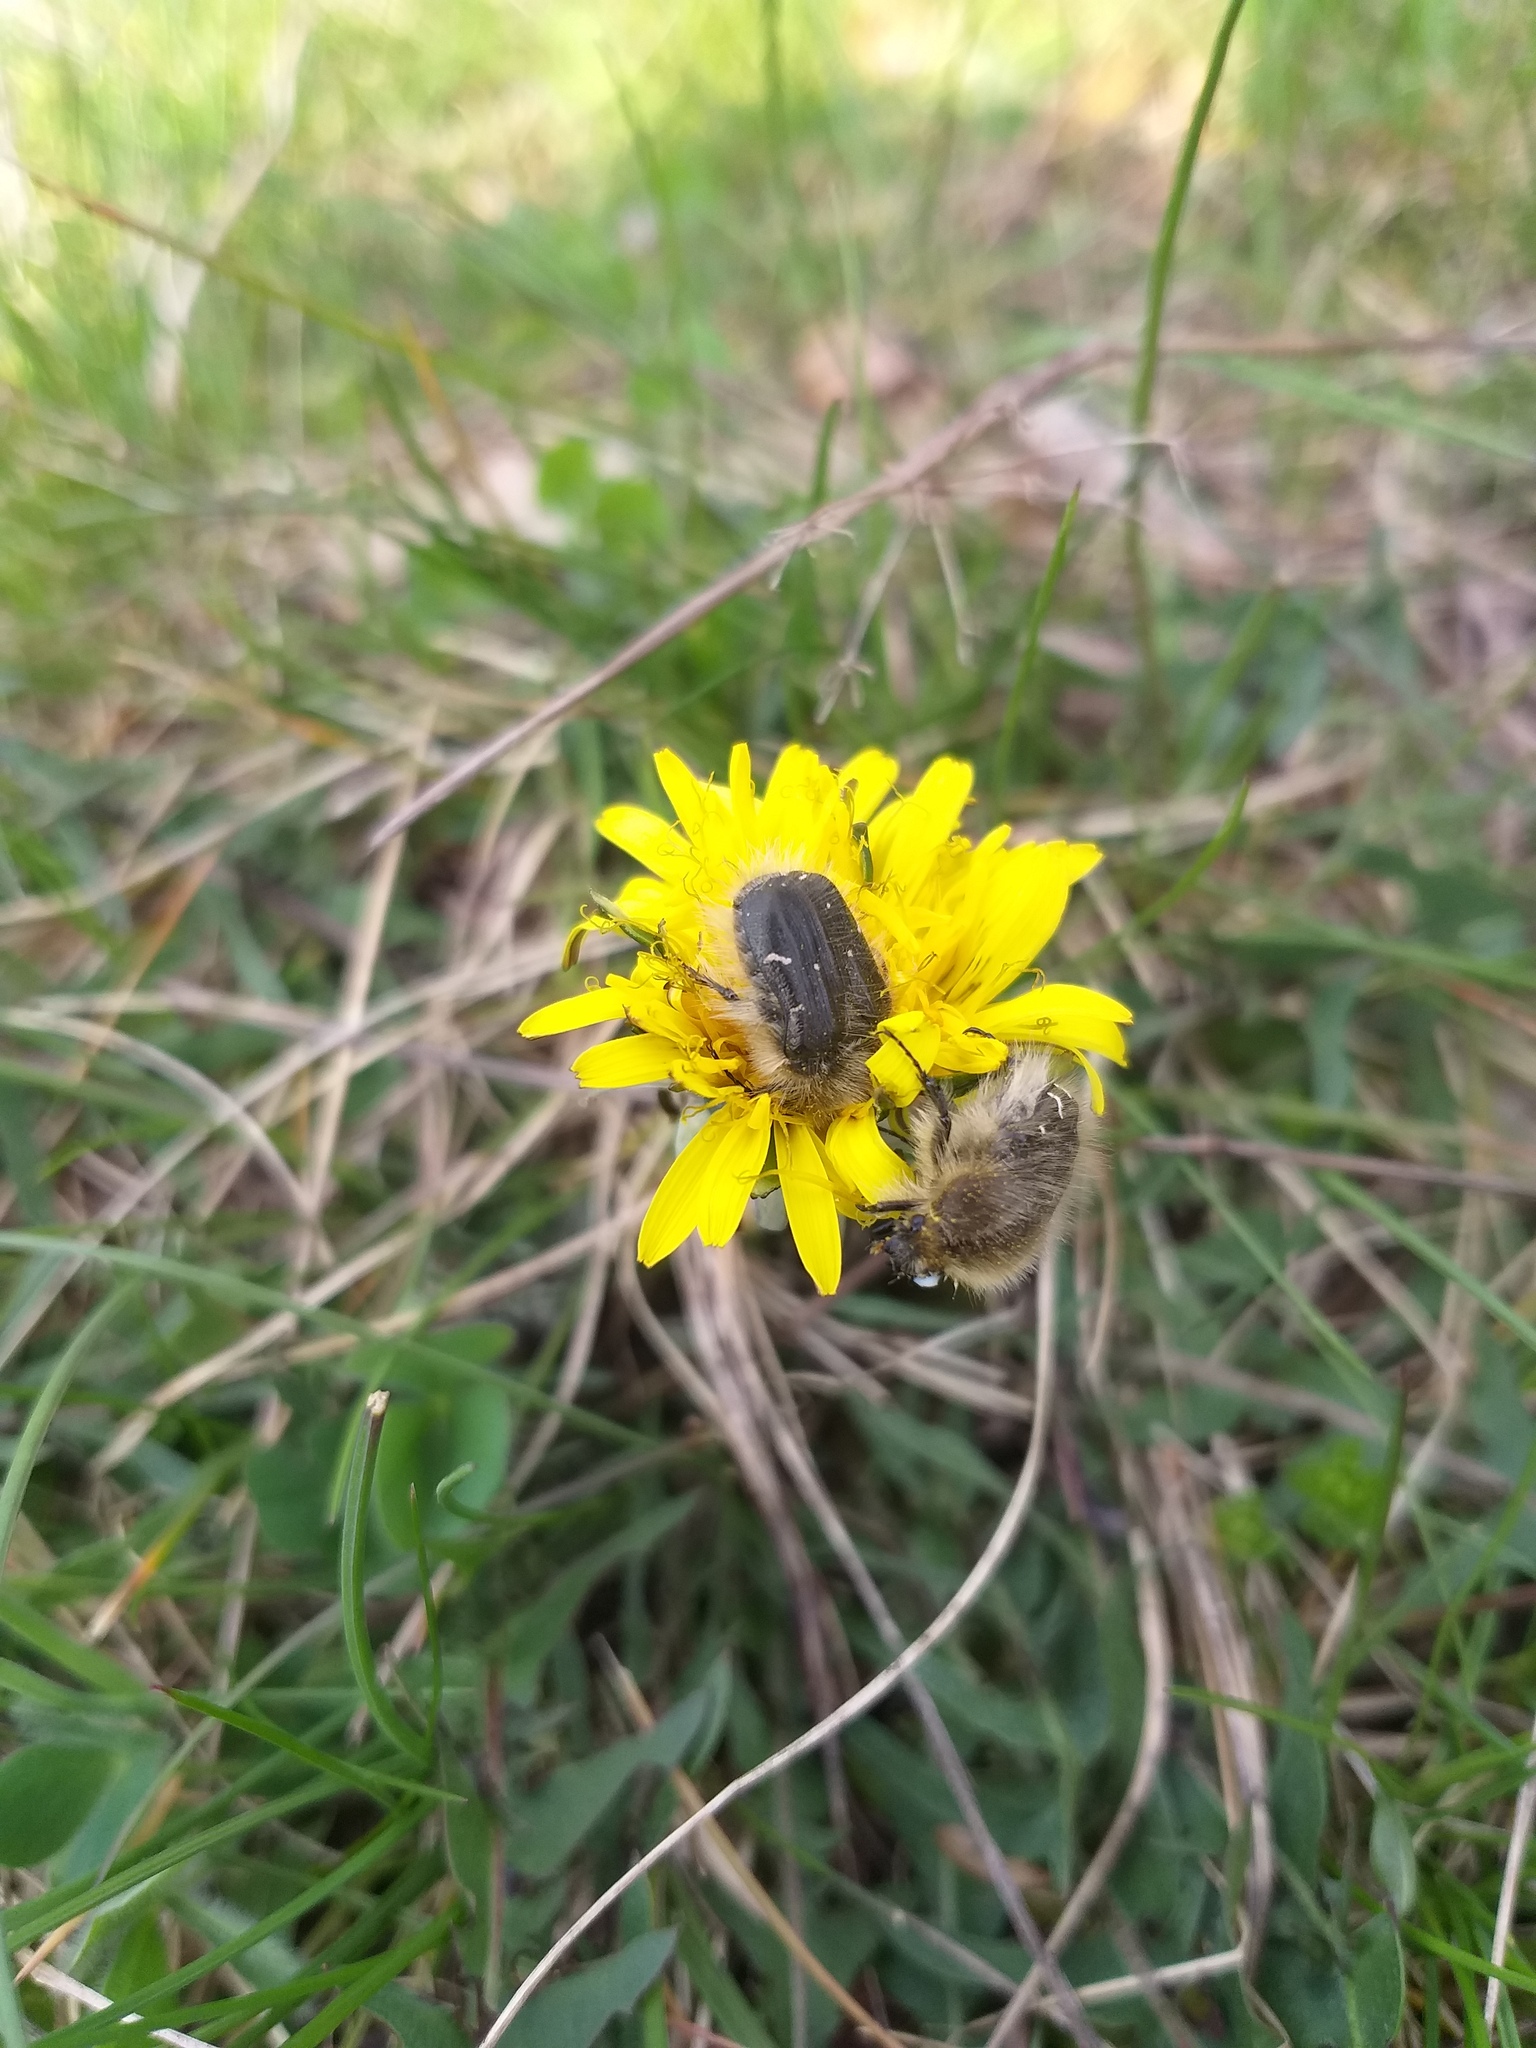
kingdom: Animalia
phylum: Arthropoda
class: Insecta
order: Coleoptera
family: Scarabaeidae
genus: Tropinota
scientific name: Tropinota hirta
